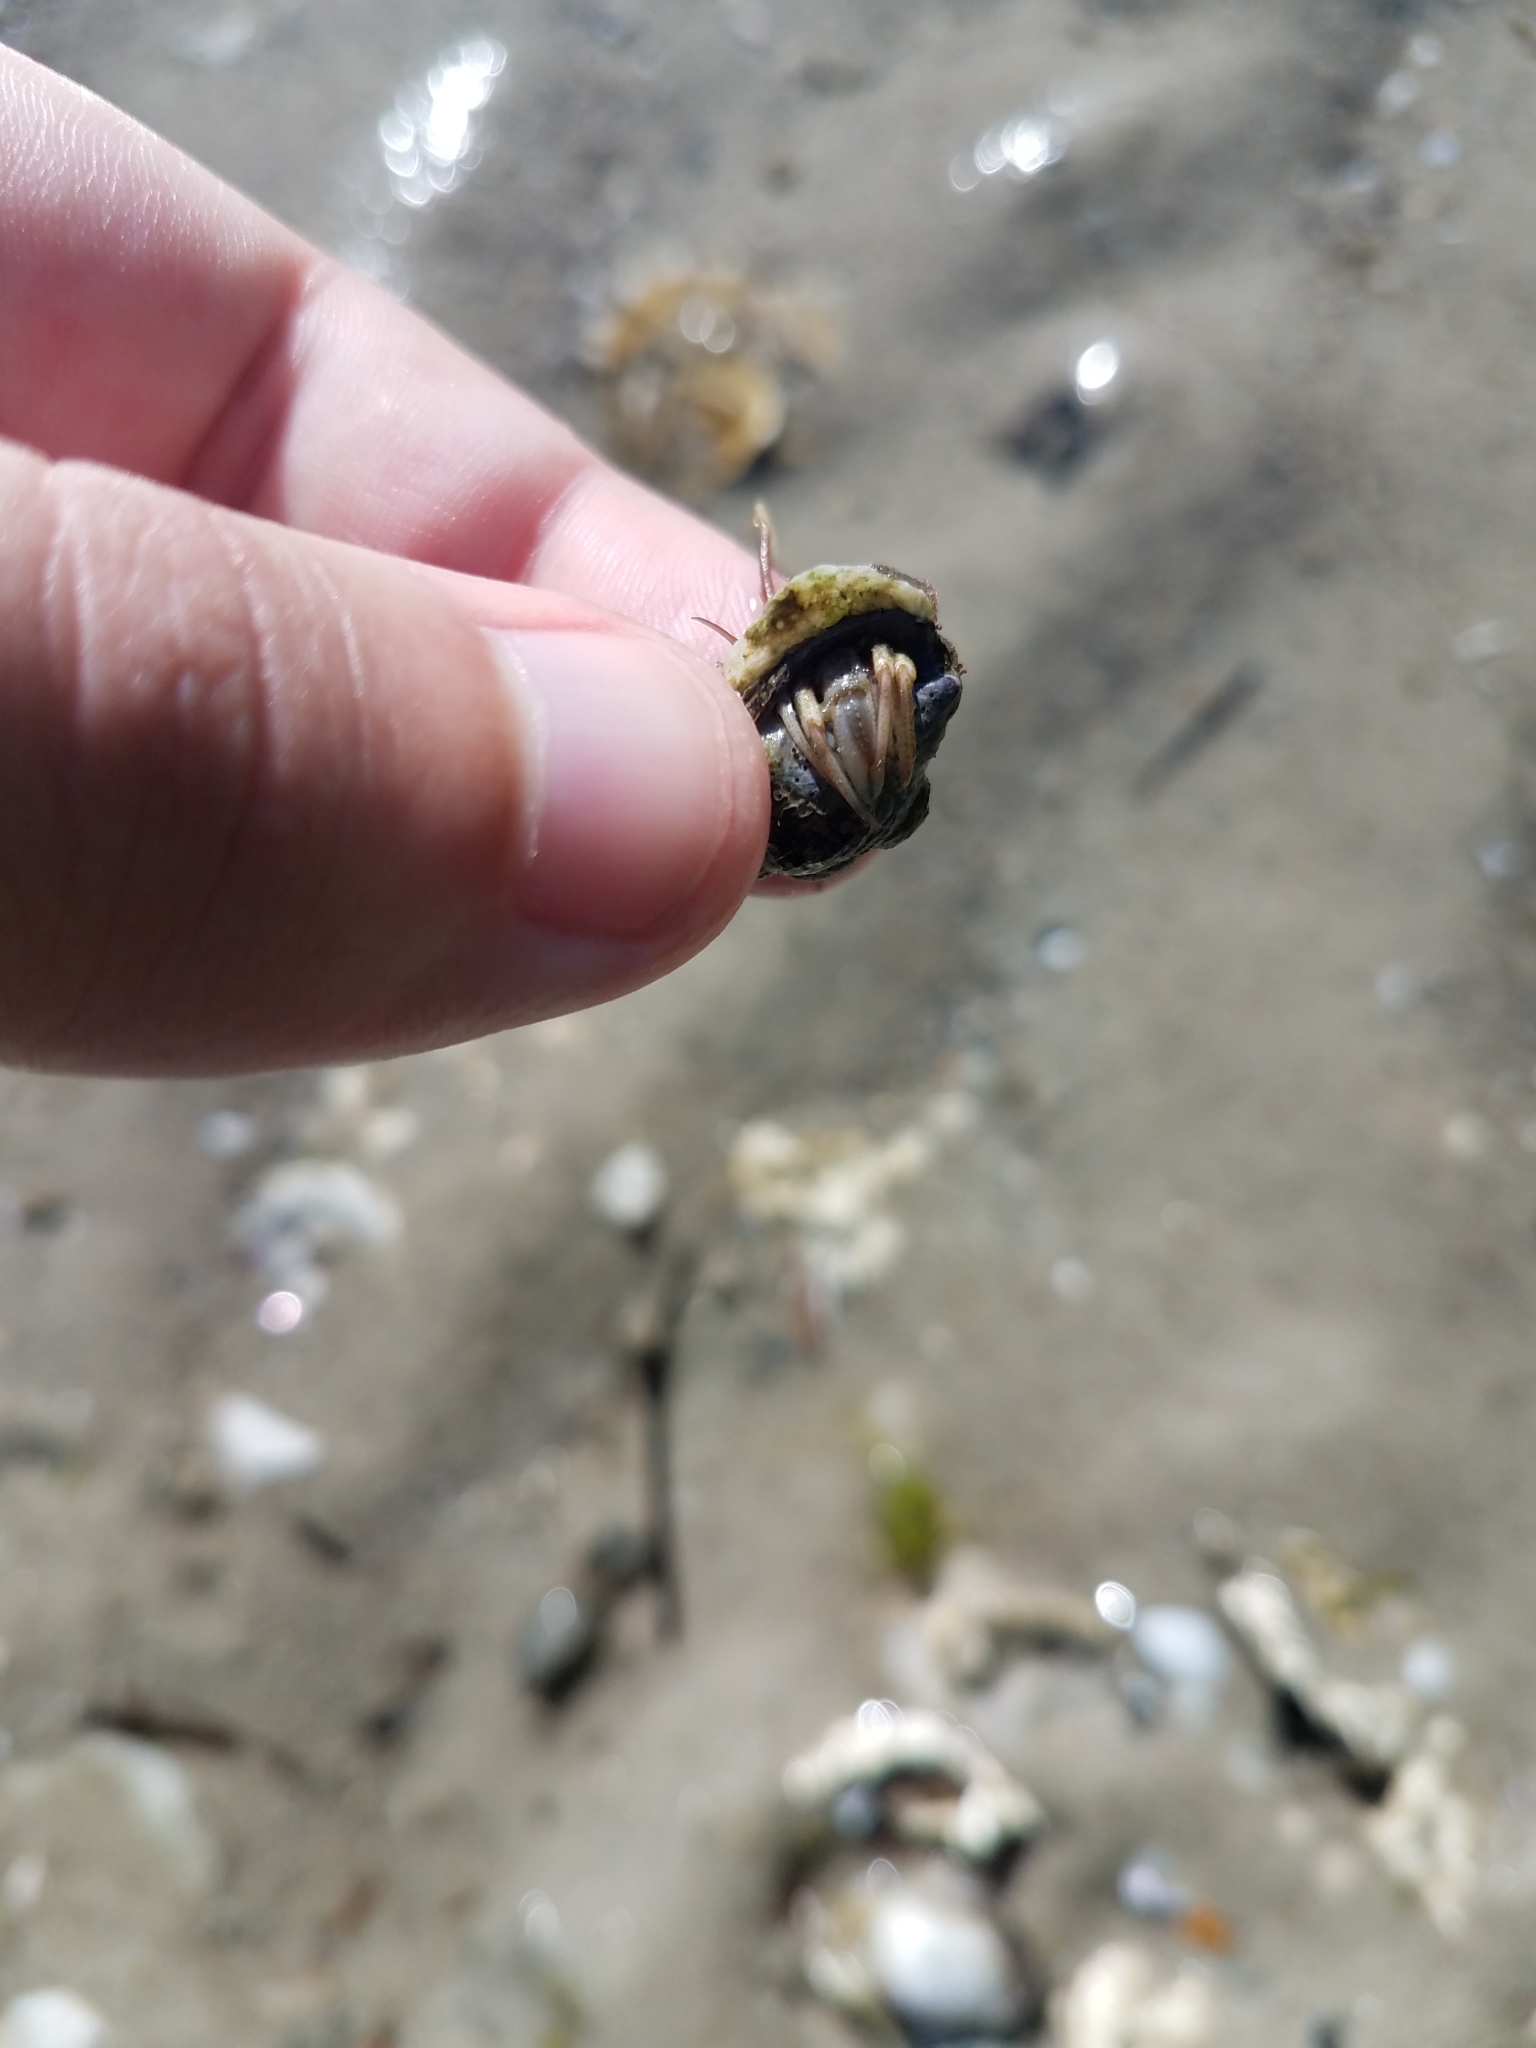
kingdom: Animalia
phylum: Arthropoda
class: Malacostraca
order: Decapoda
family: Paguridae
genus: Pagurus
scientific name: Pagurus longicarpus
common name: Long-armed hermit crab
